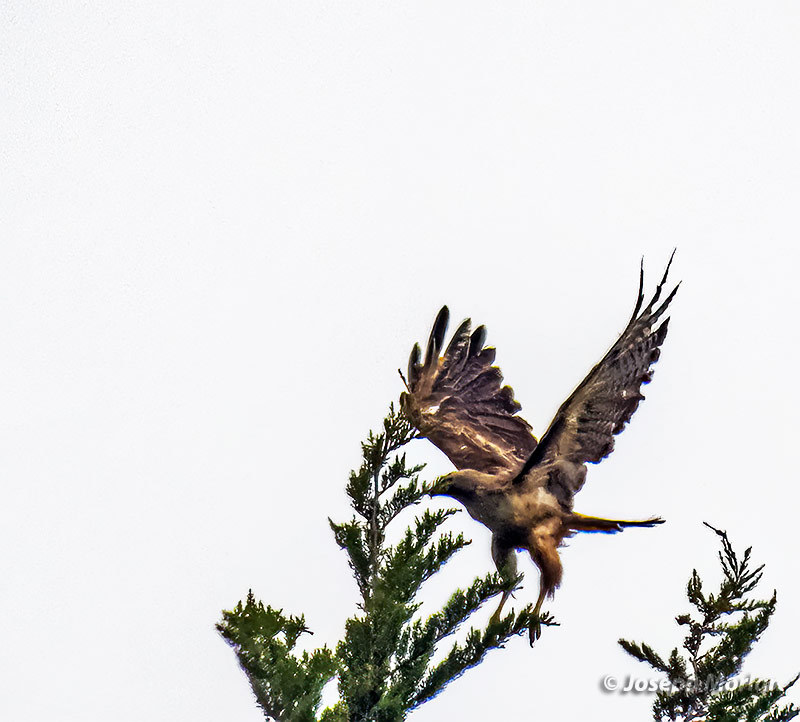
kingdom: Animalia
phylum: Chordata
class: Aves
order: Accipitriformes
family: Accipitridae
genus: Buteo
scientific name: Buteo jamaicensis
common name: Red-tailed hawk
